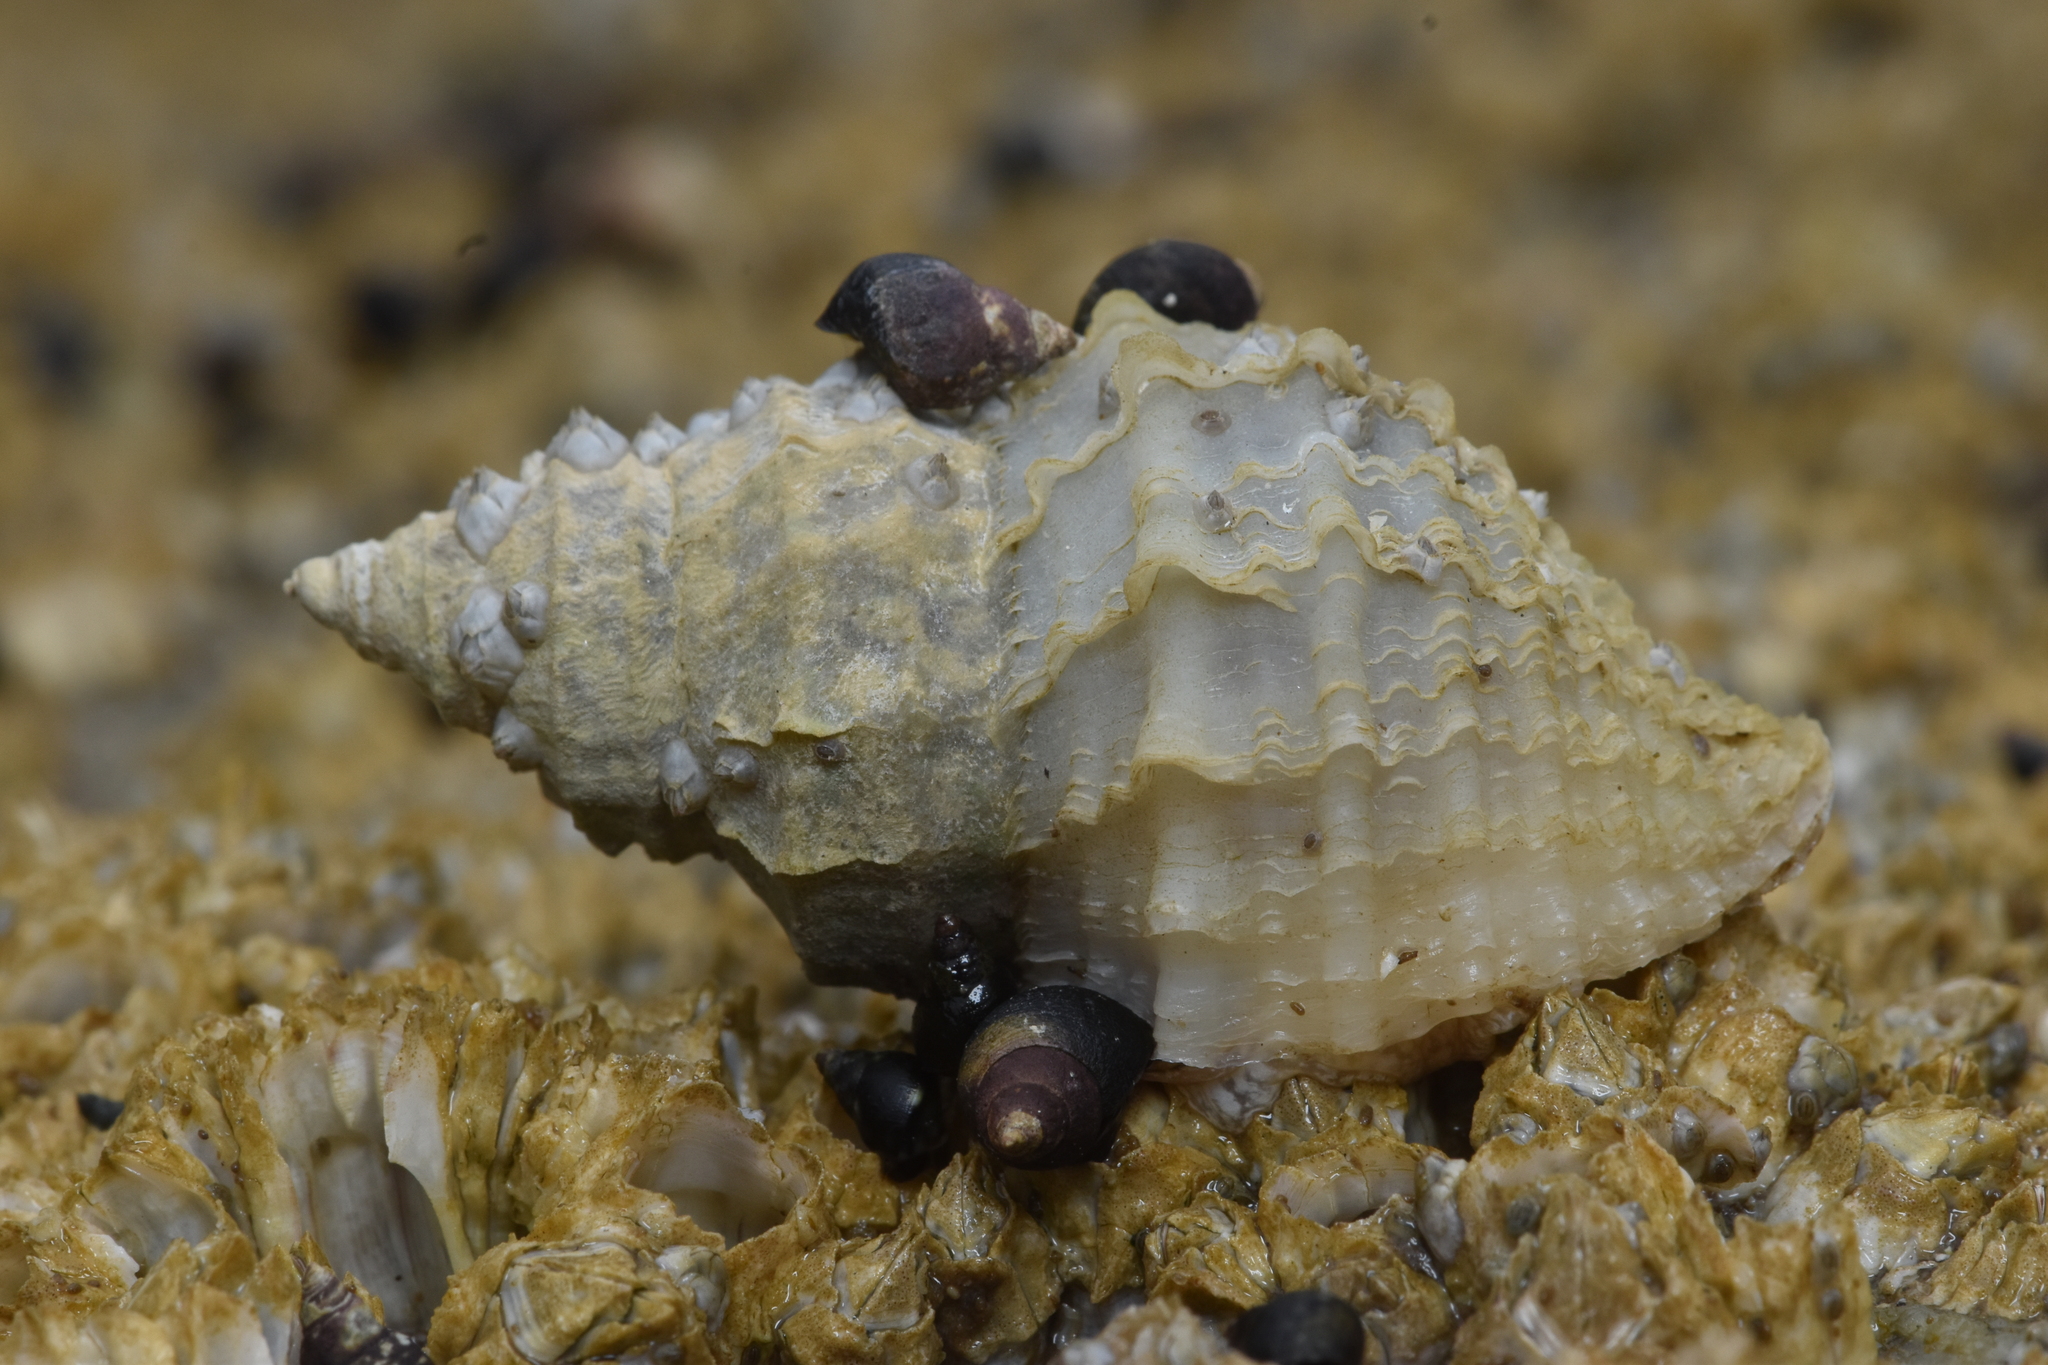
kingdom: Animalia
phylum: Mollusca
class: Gastropoda
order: Neogastropoda
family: Muricidae
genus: Nucella
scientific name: Nucella lamellosa
